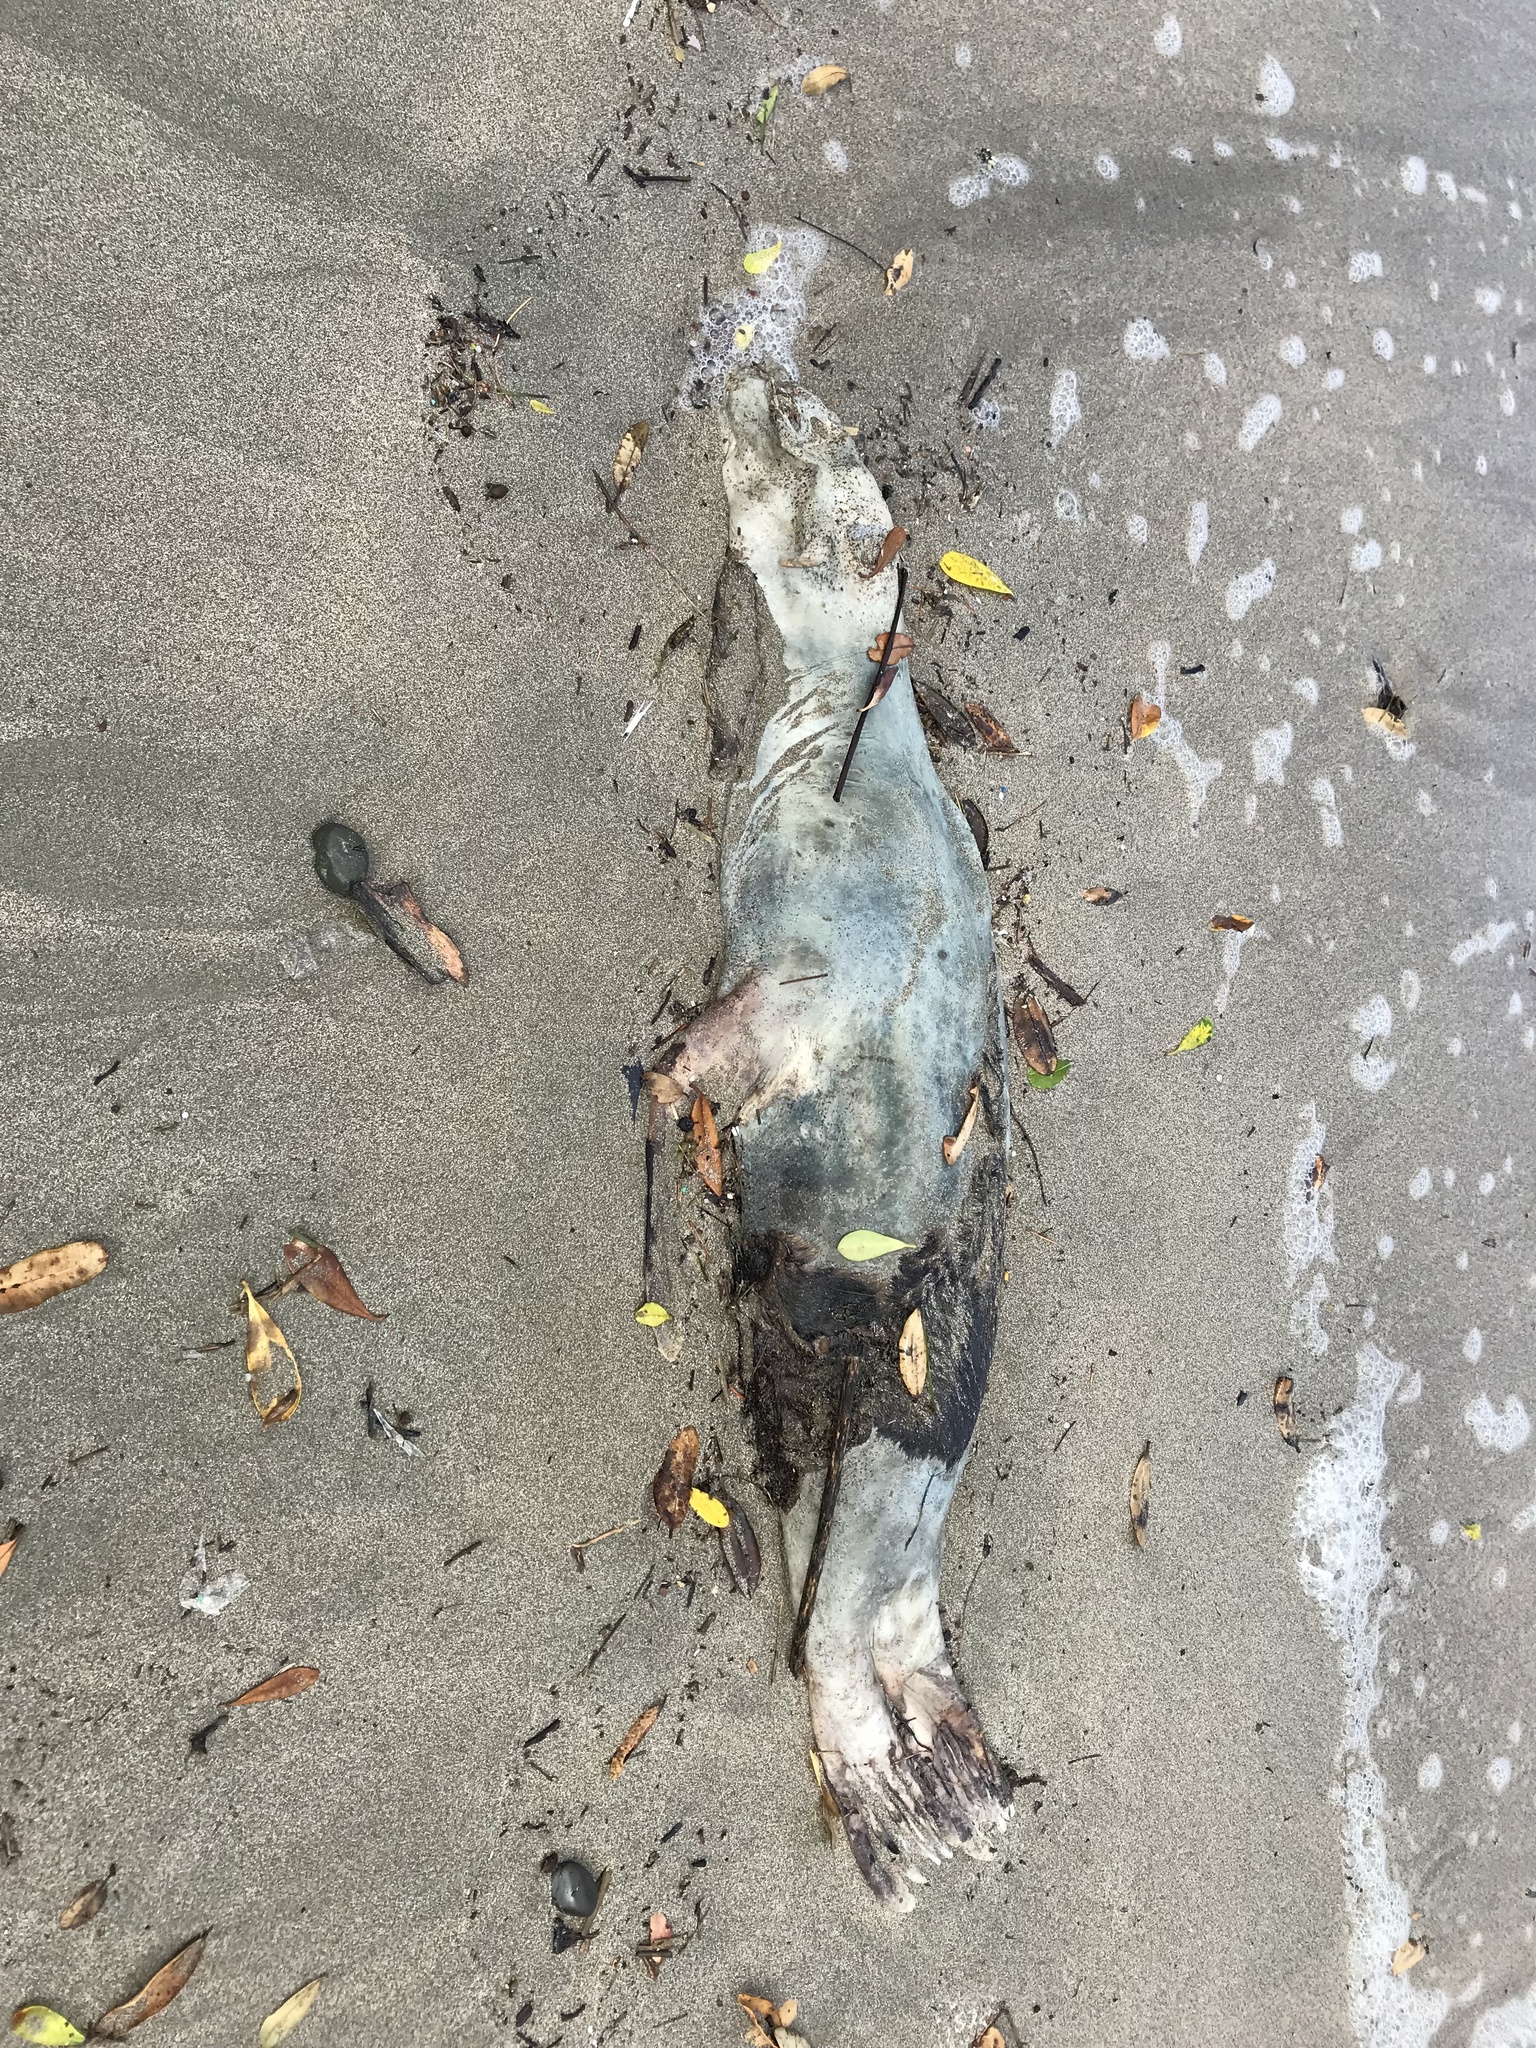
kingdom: Animalia
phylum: Chordata
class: Mammalia
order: Carnivora
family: Otariidae
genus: Arctocephalus
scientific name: Arctocephalus forsteri
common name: New zealand fur seal
